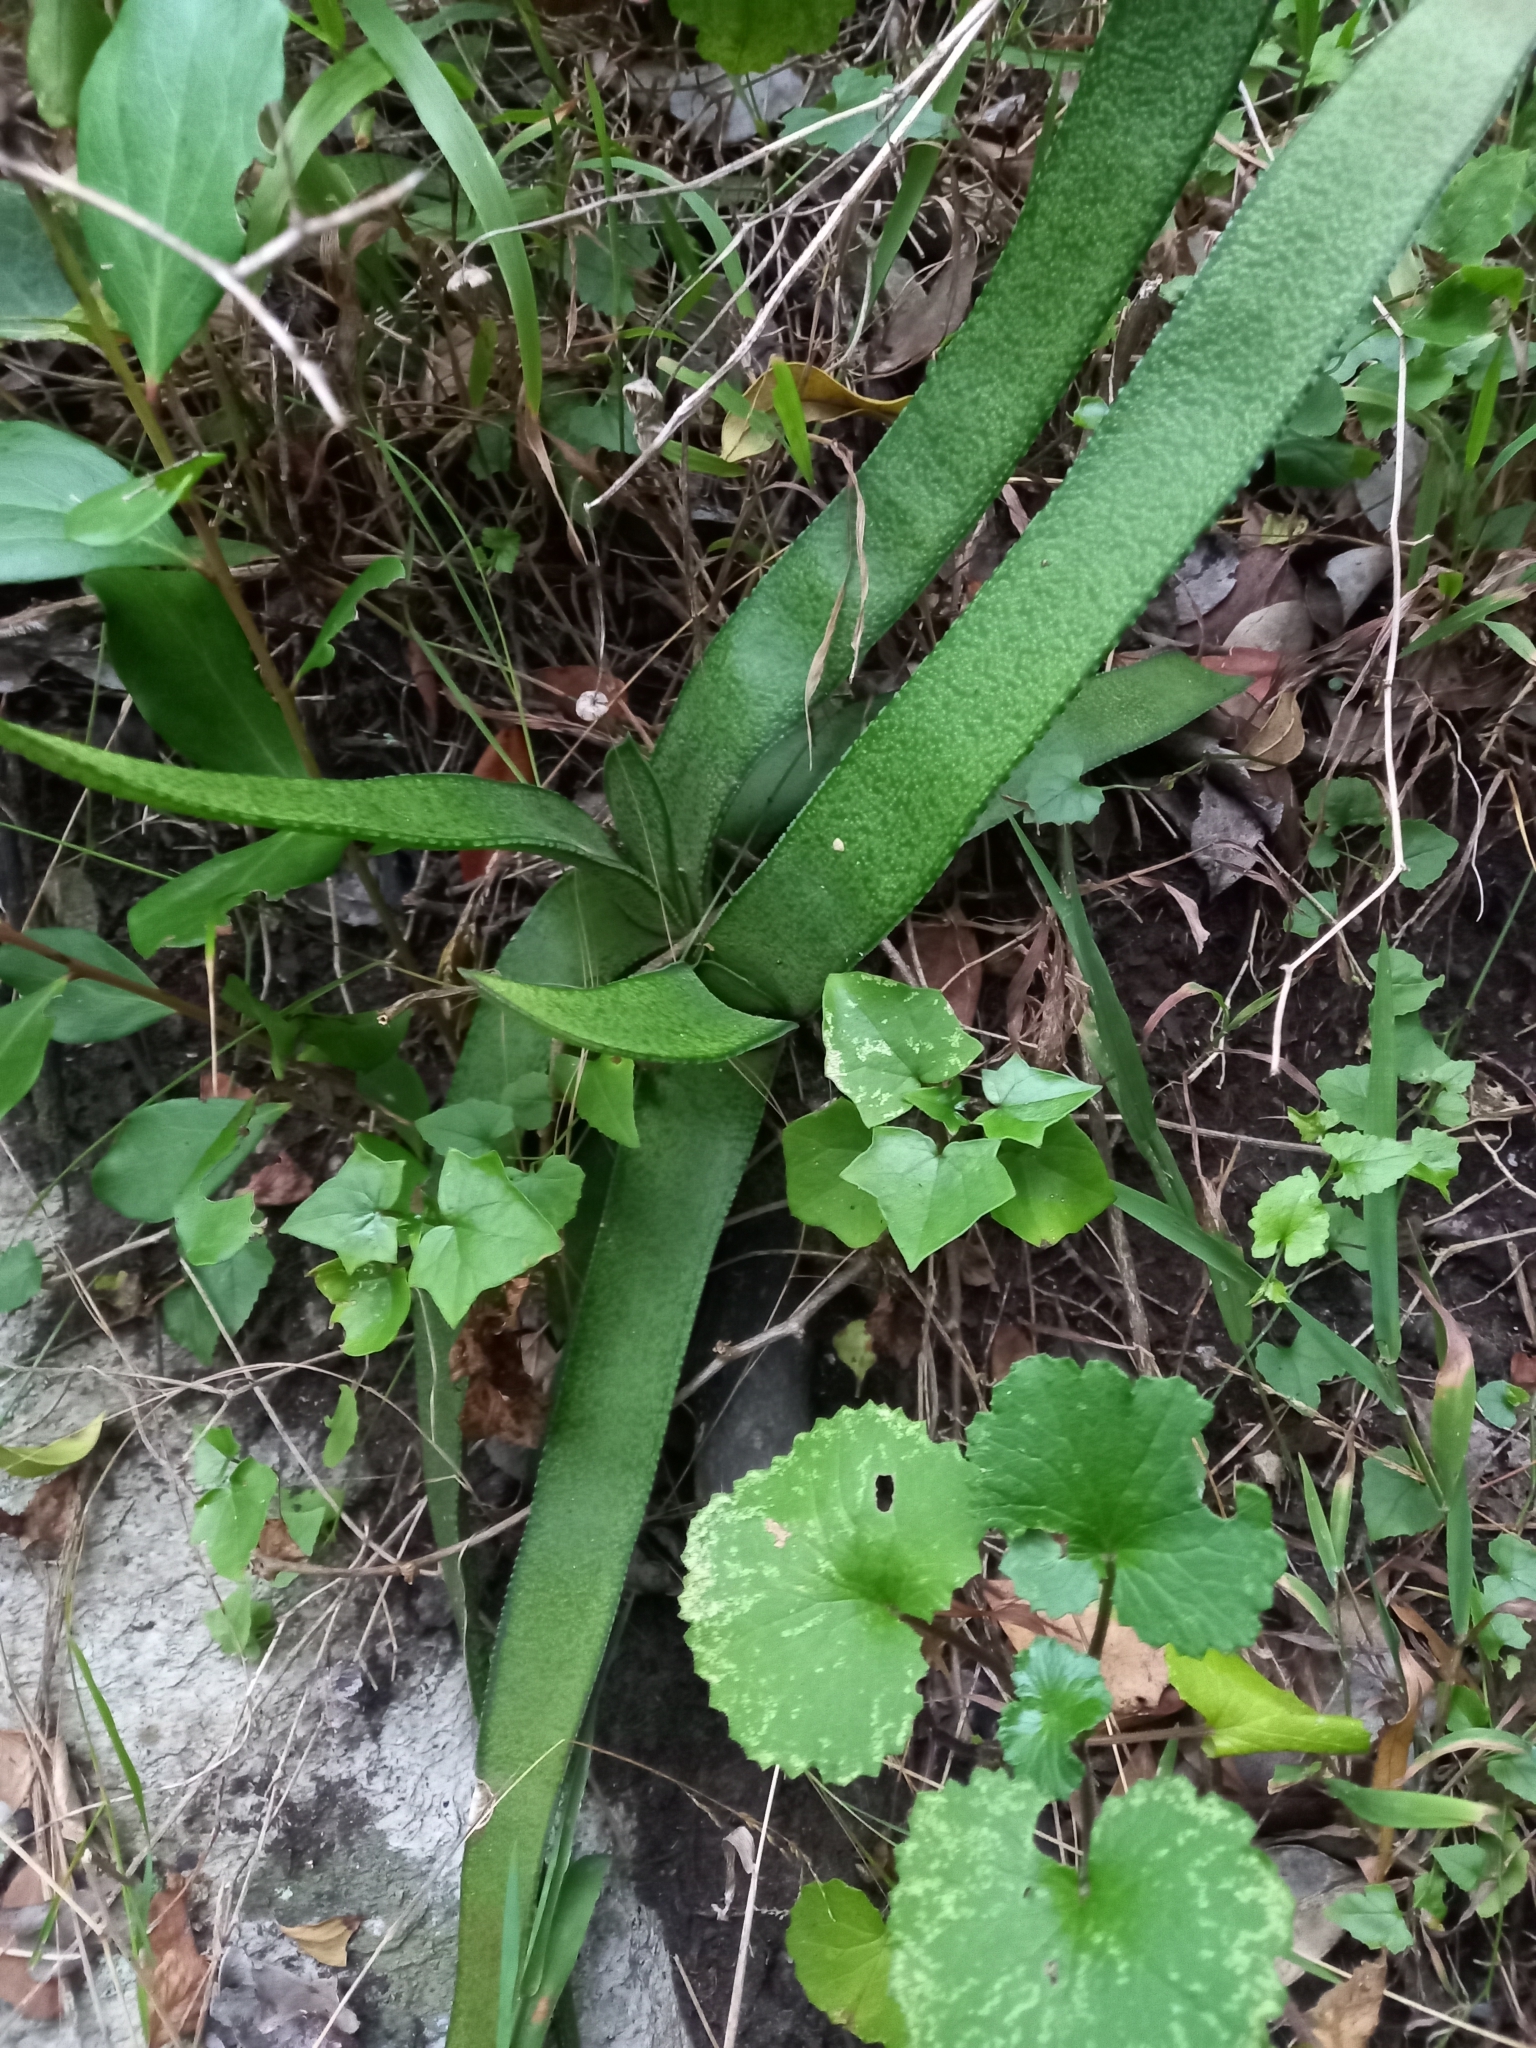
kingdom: Plantae
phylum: Tracheophyta
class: Liliopsida
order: Asparagales
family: Asphodelaceae
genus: Gasteria
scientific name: Gasteria acinacifolia
